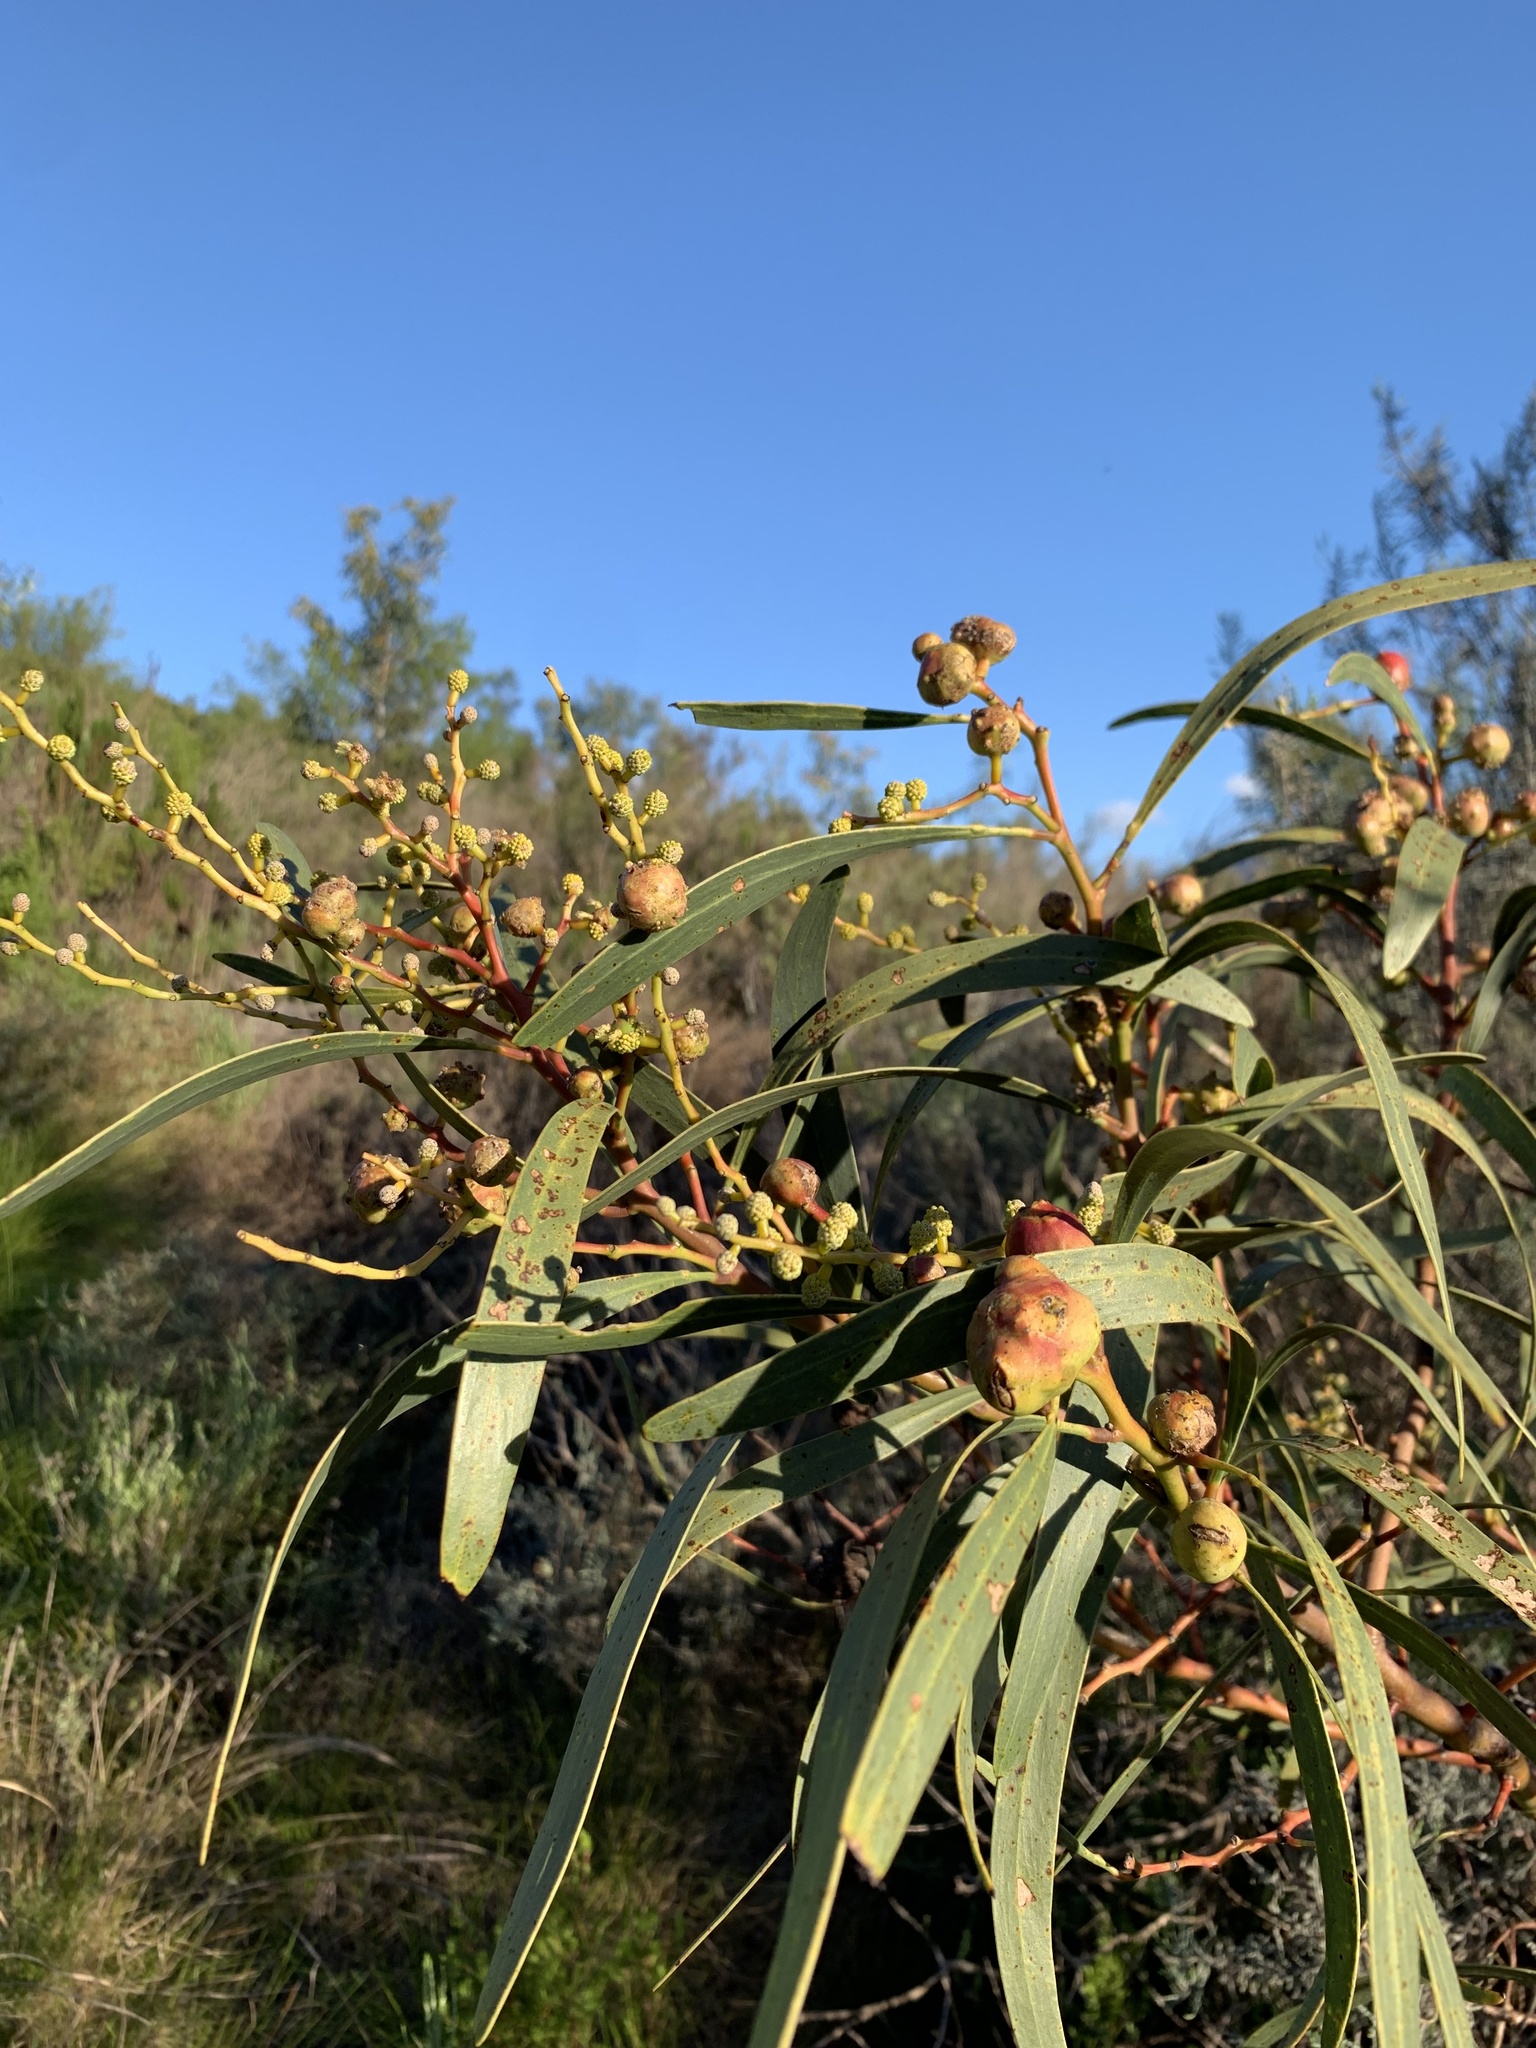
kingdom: Plantae
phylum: Tracheophyta
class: Magnoliopsida
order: Fabales
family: Fabaceae
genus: Acacia
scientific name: Acacia pycnantha
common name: Golden wattle
